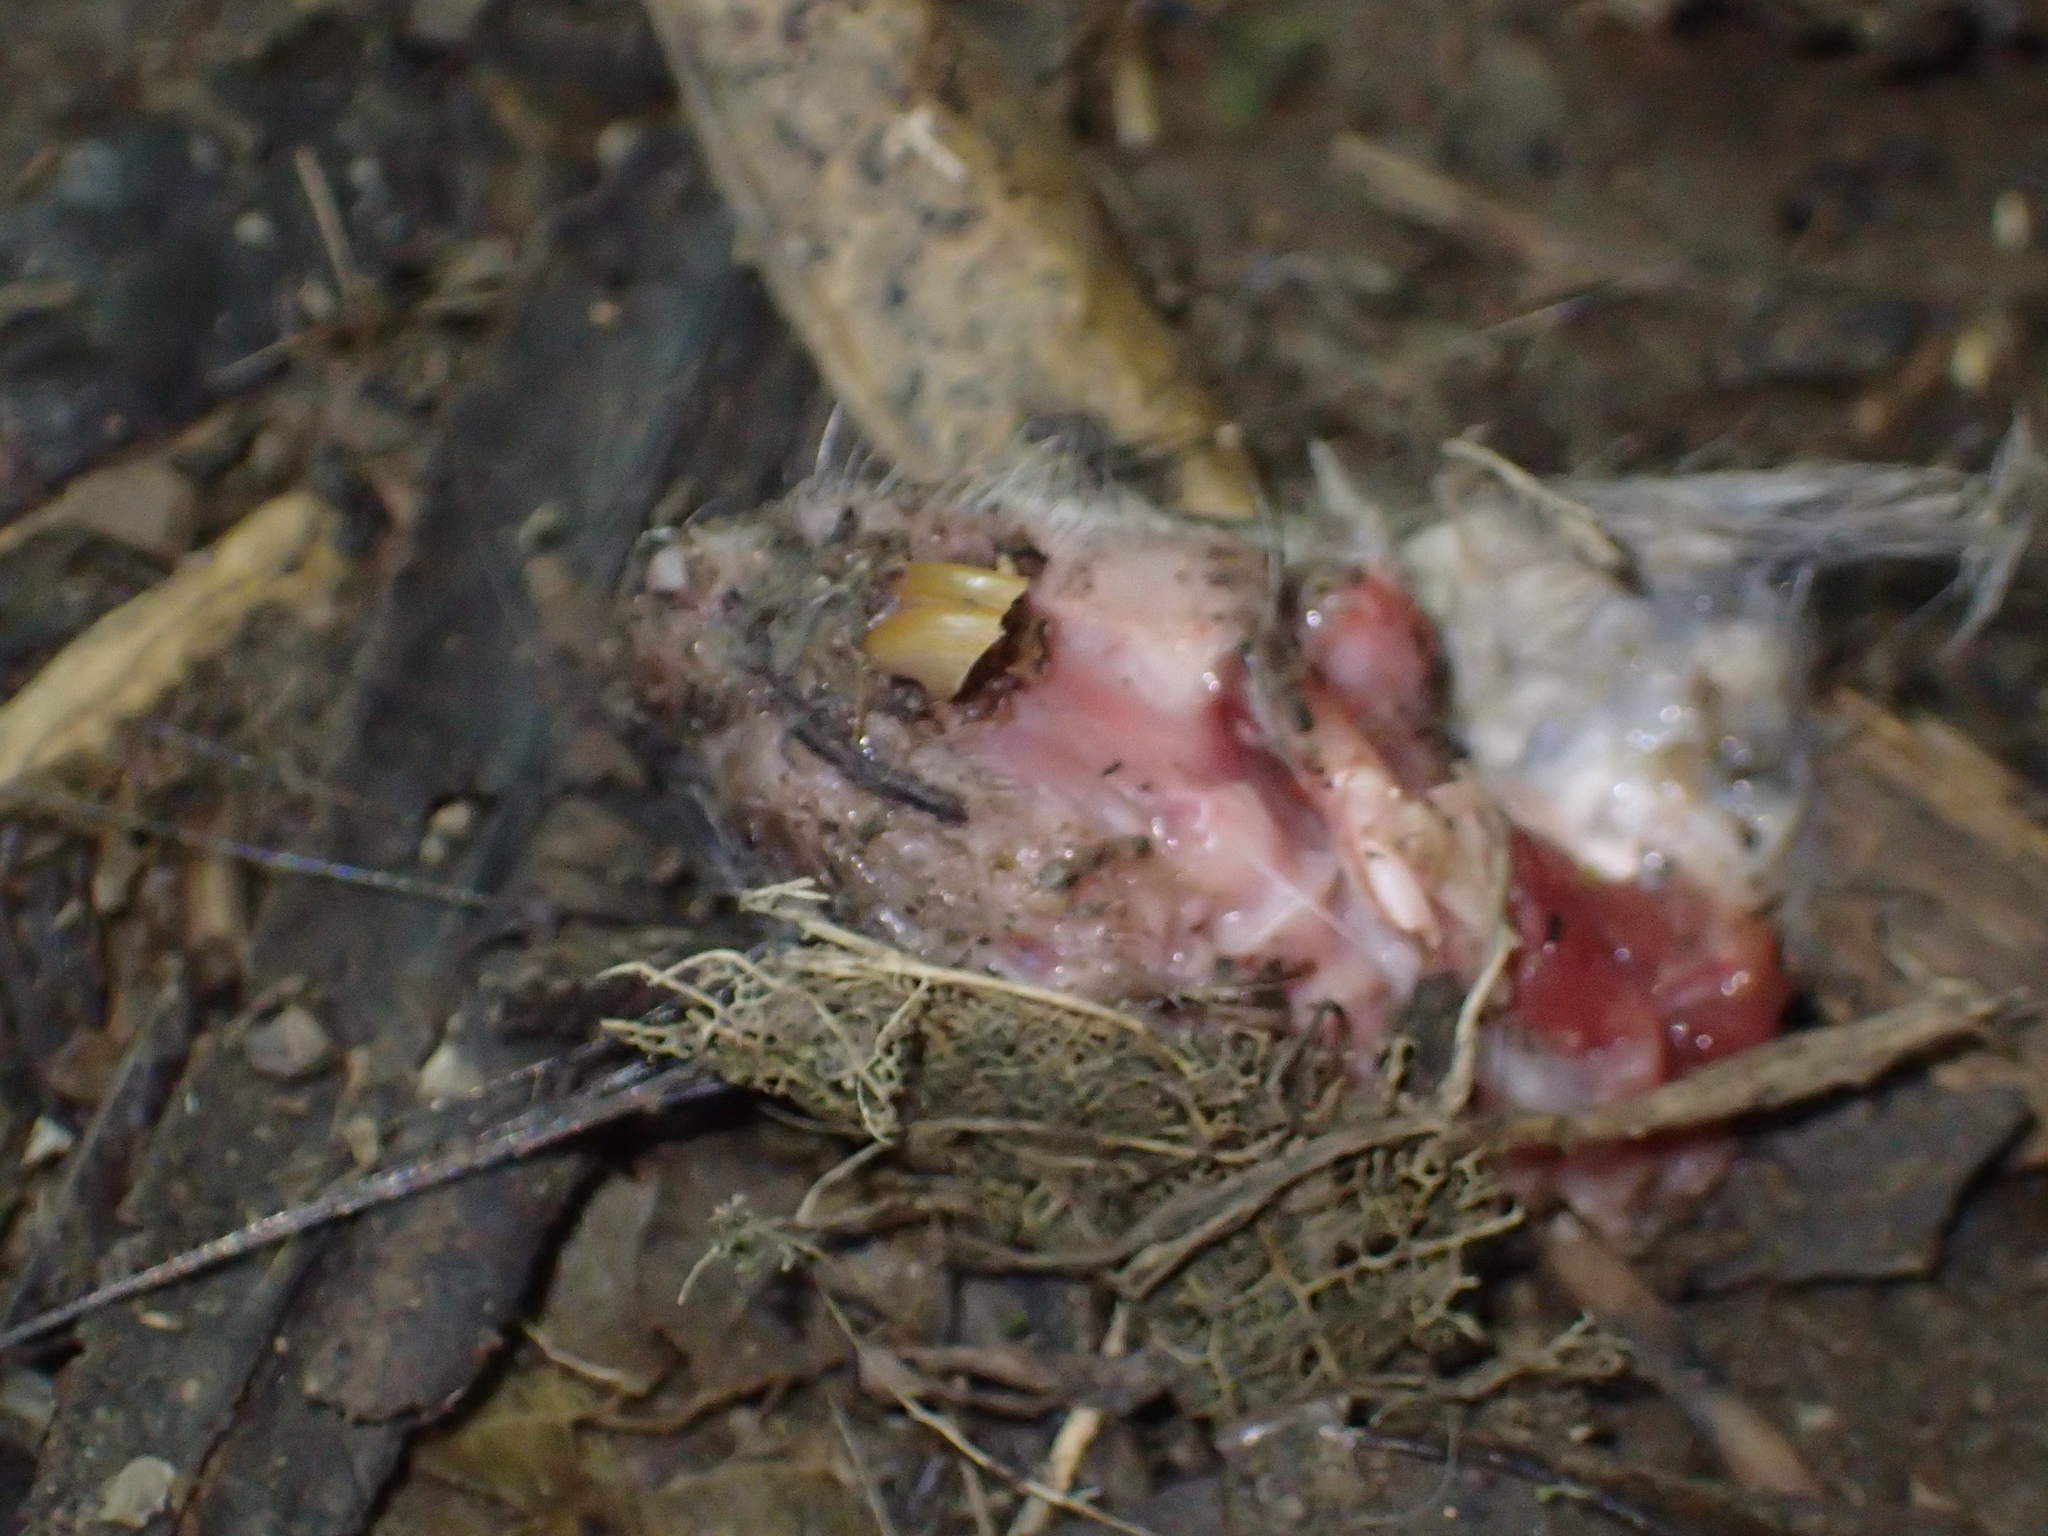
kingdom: Animalia
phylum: Chordata
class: Mammalia
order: Rodentia
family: Muridae
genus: Rattus
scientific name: Rattus rattus
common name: Black rat
